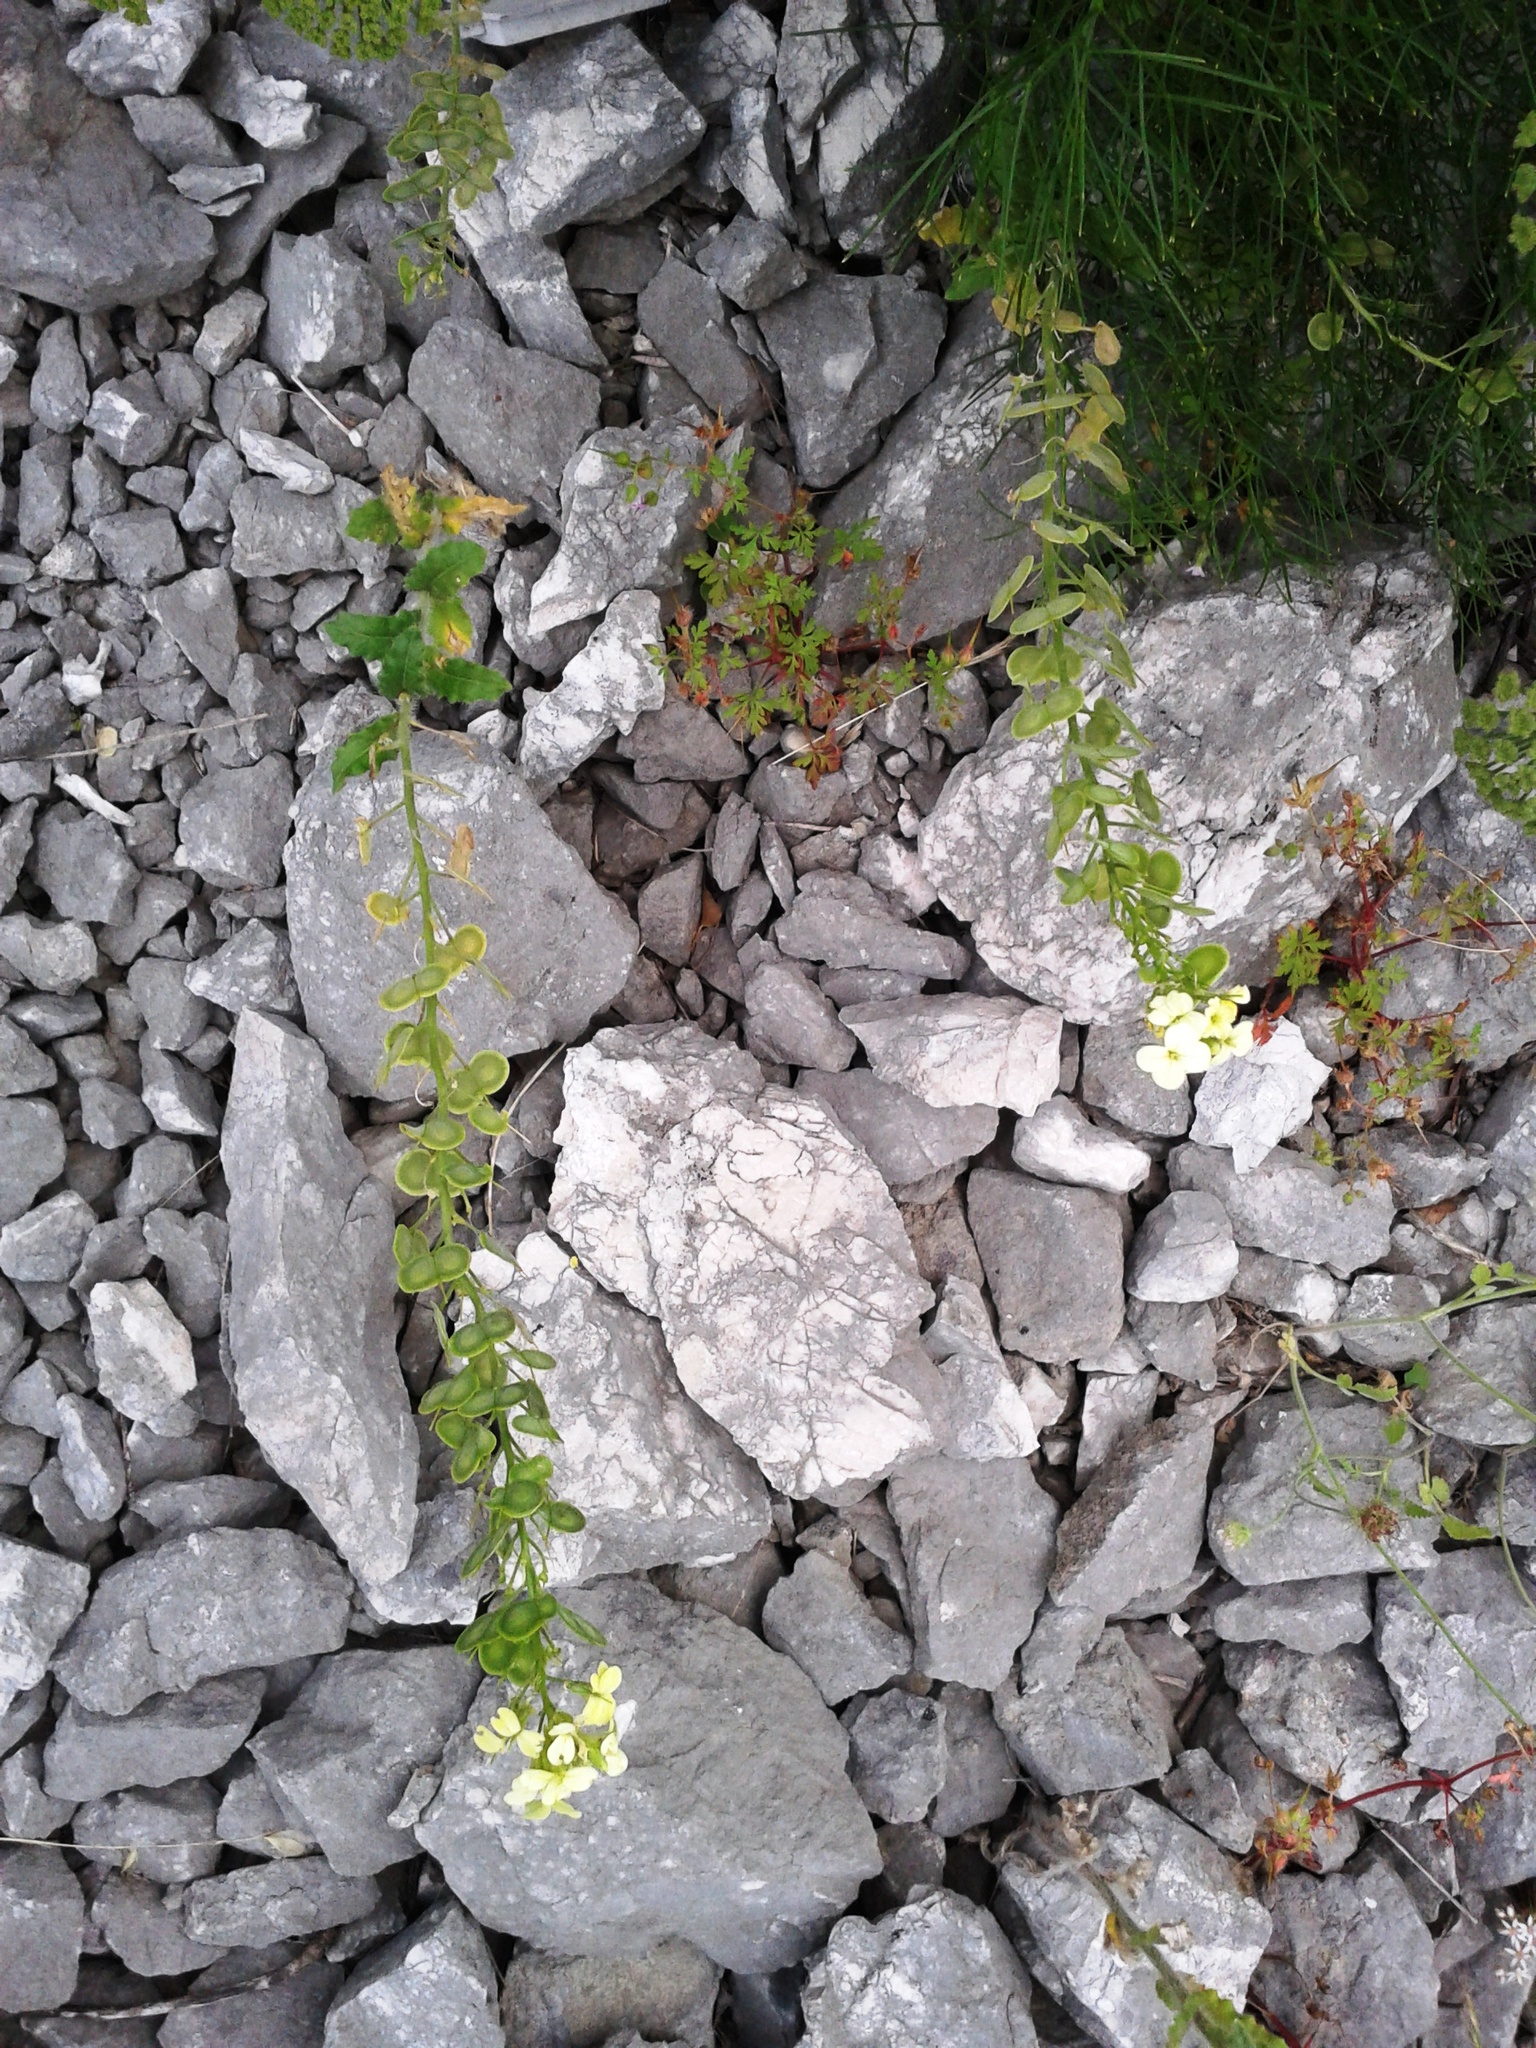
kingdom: Plantae
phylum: Tracheophyta
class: Magnoliopsida
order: Brassicales
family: Brassicaceae
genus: Biscutella
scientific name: Biscutella cichoriifolia
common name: Chicory-leaf buckler mustard
